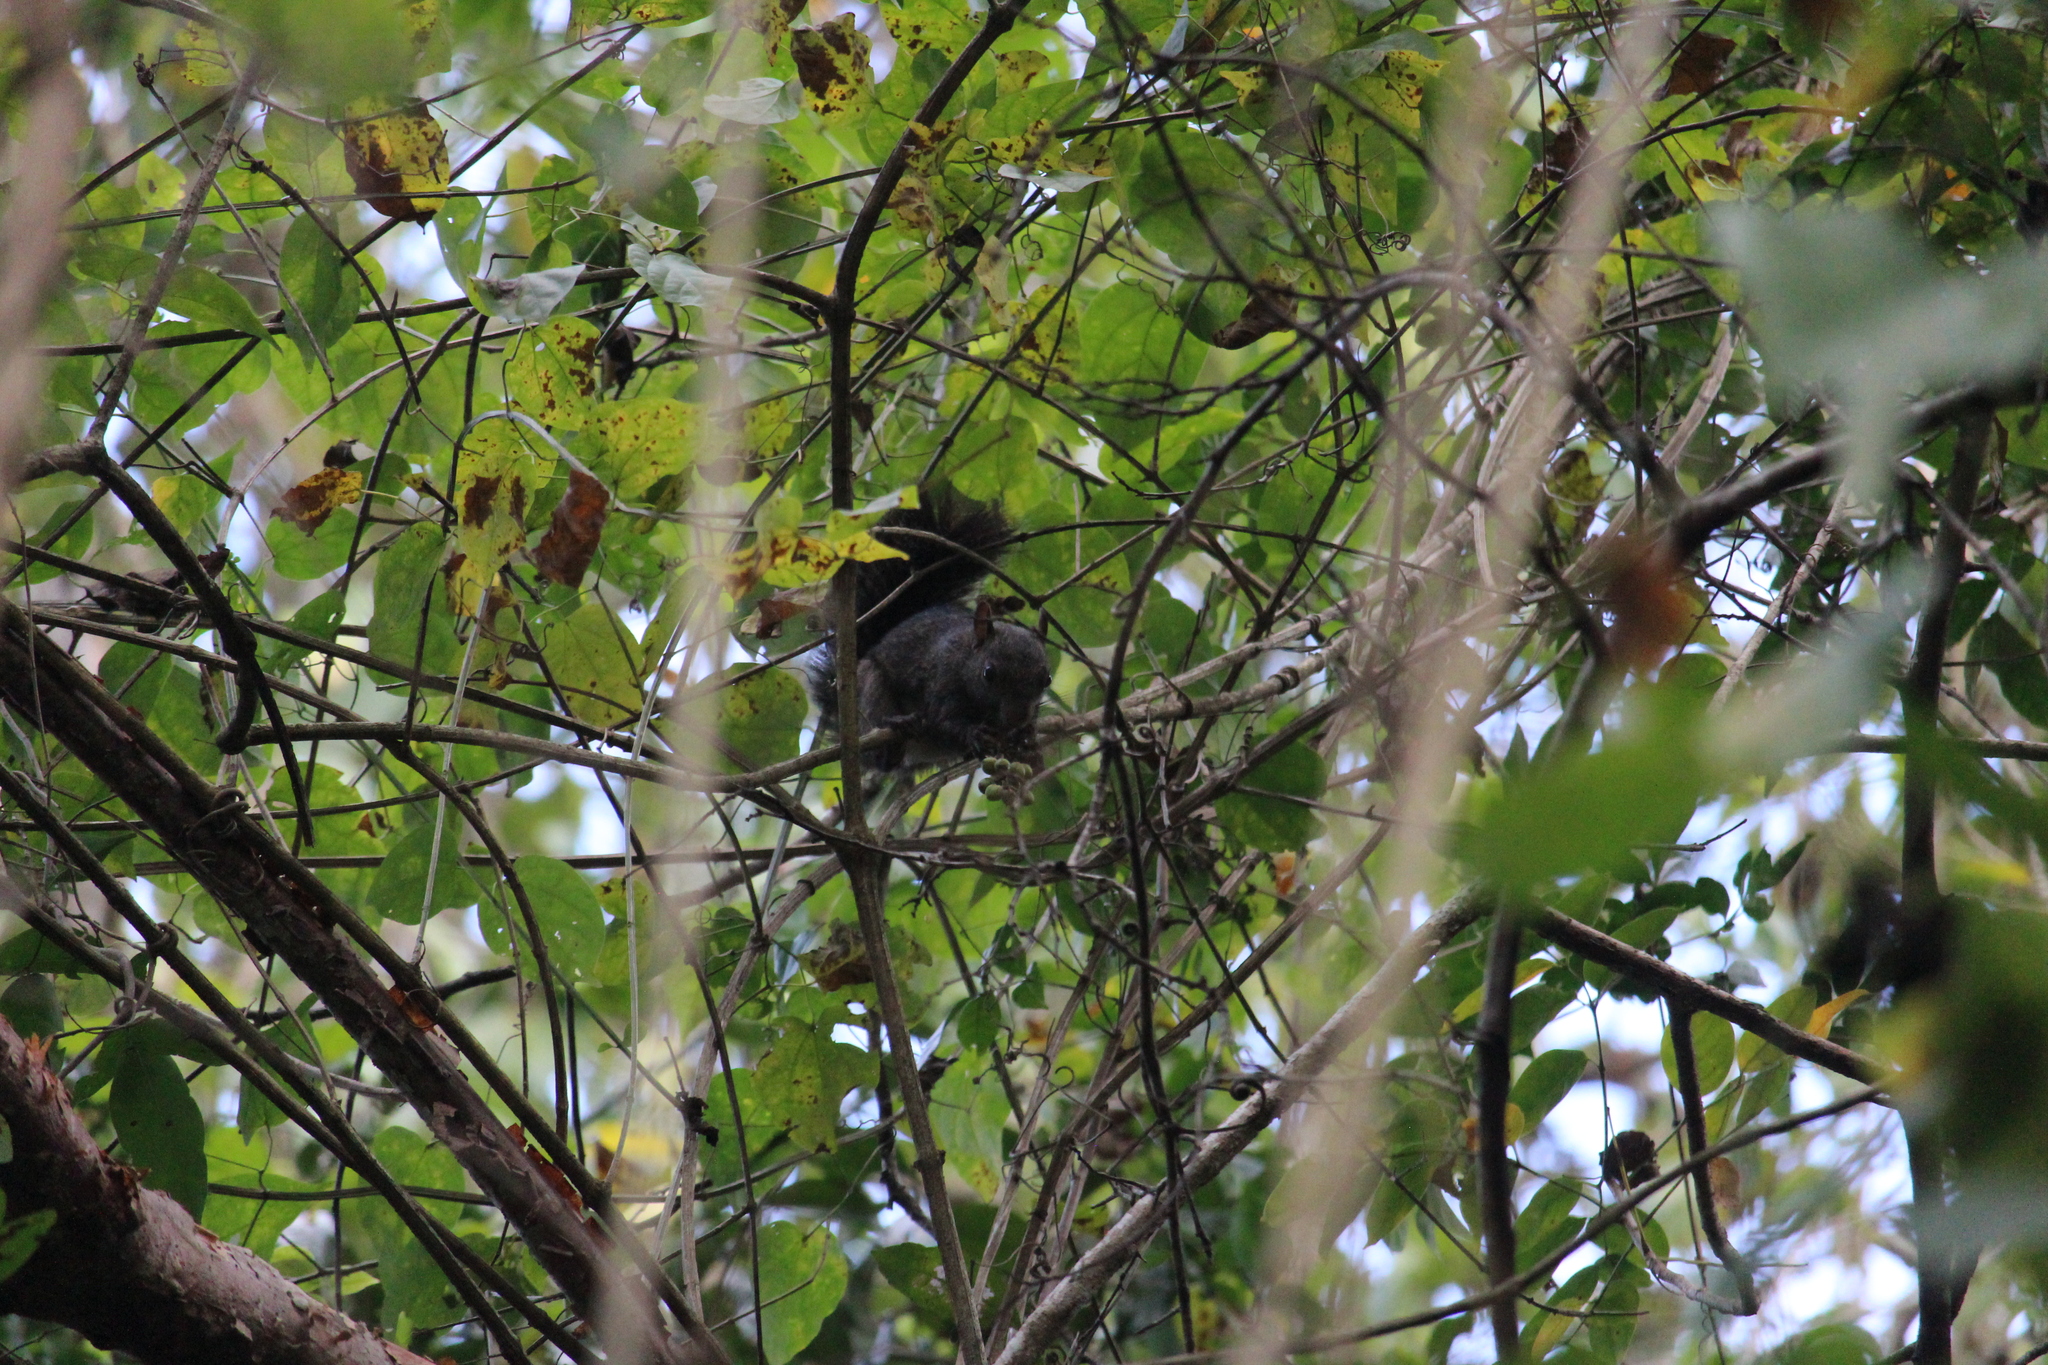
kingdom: Animalia
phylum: Chordata
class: Mammalia
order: Rodentia
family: Sciuridae
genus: Sciurus
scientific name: Sciurus yucatanensis
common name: Yucatan squirrel
